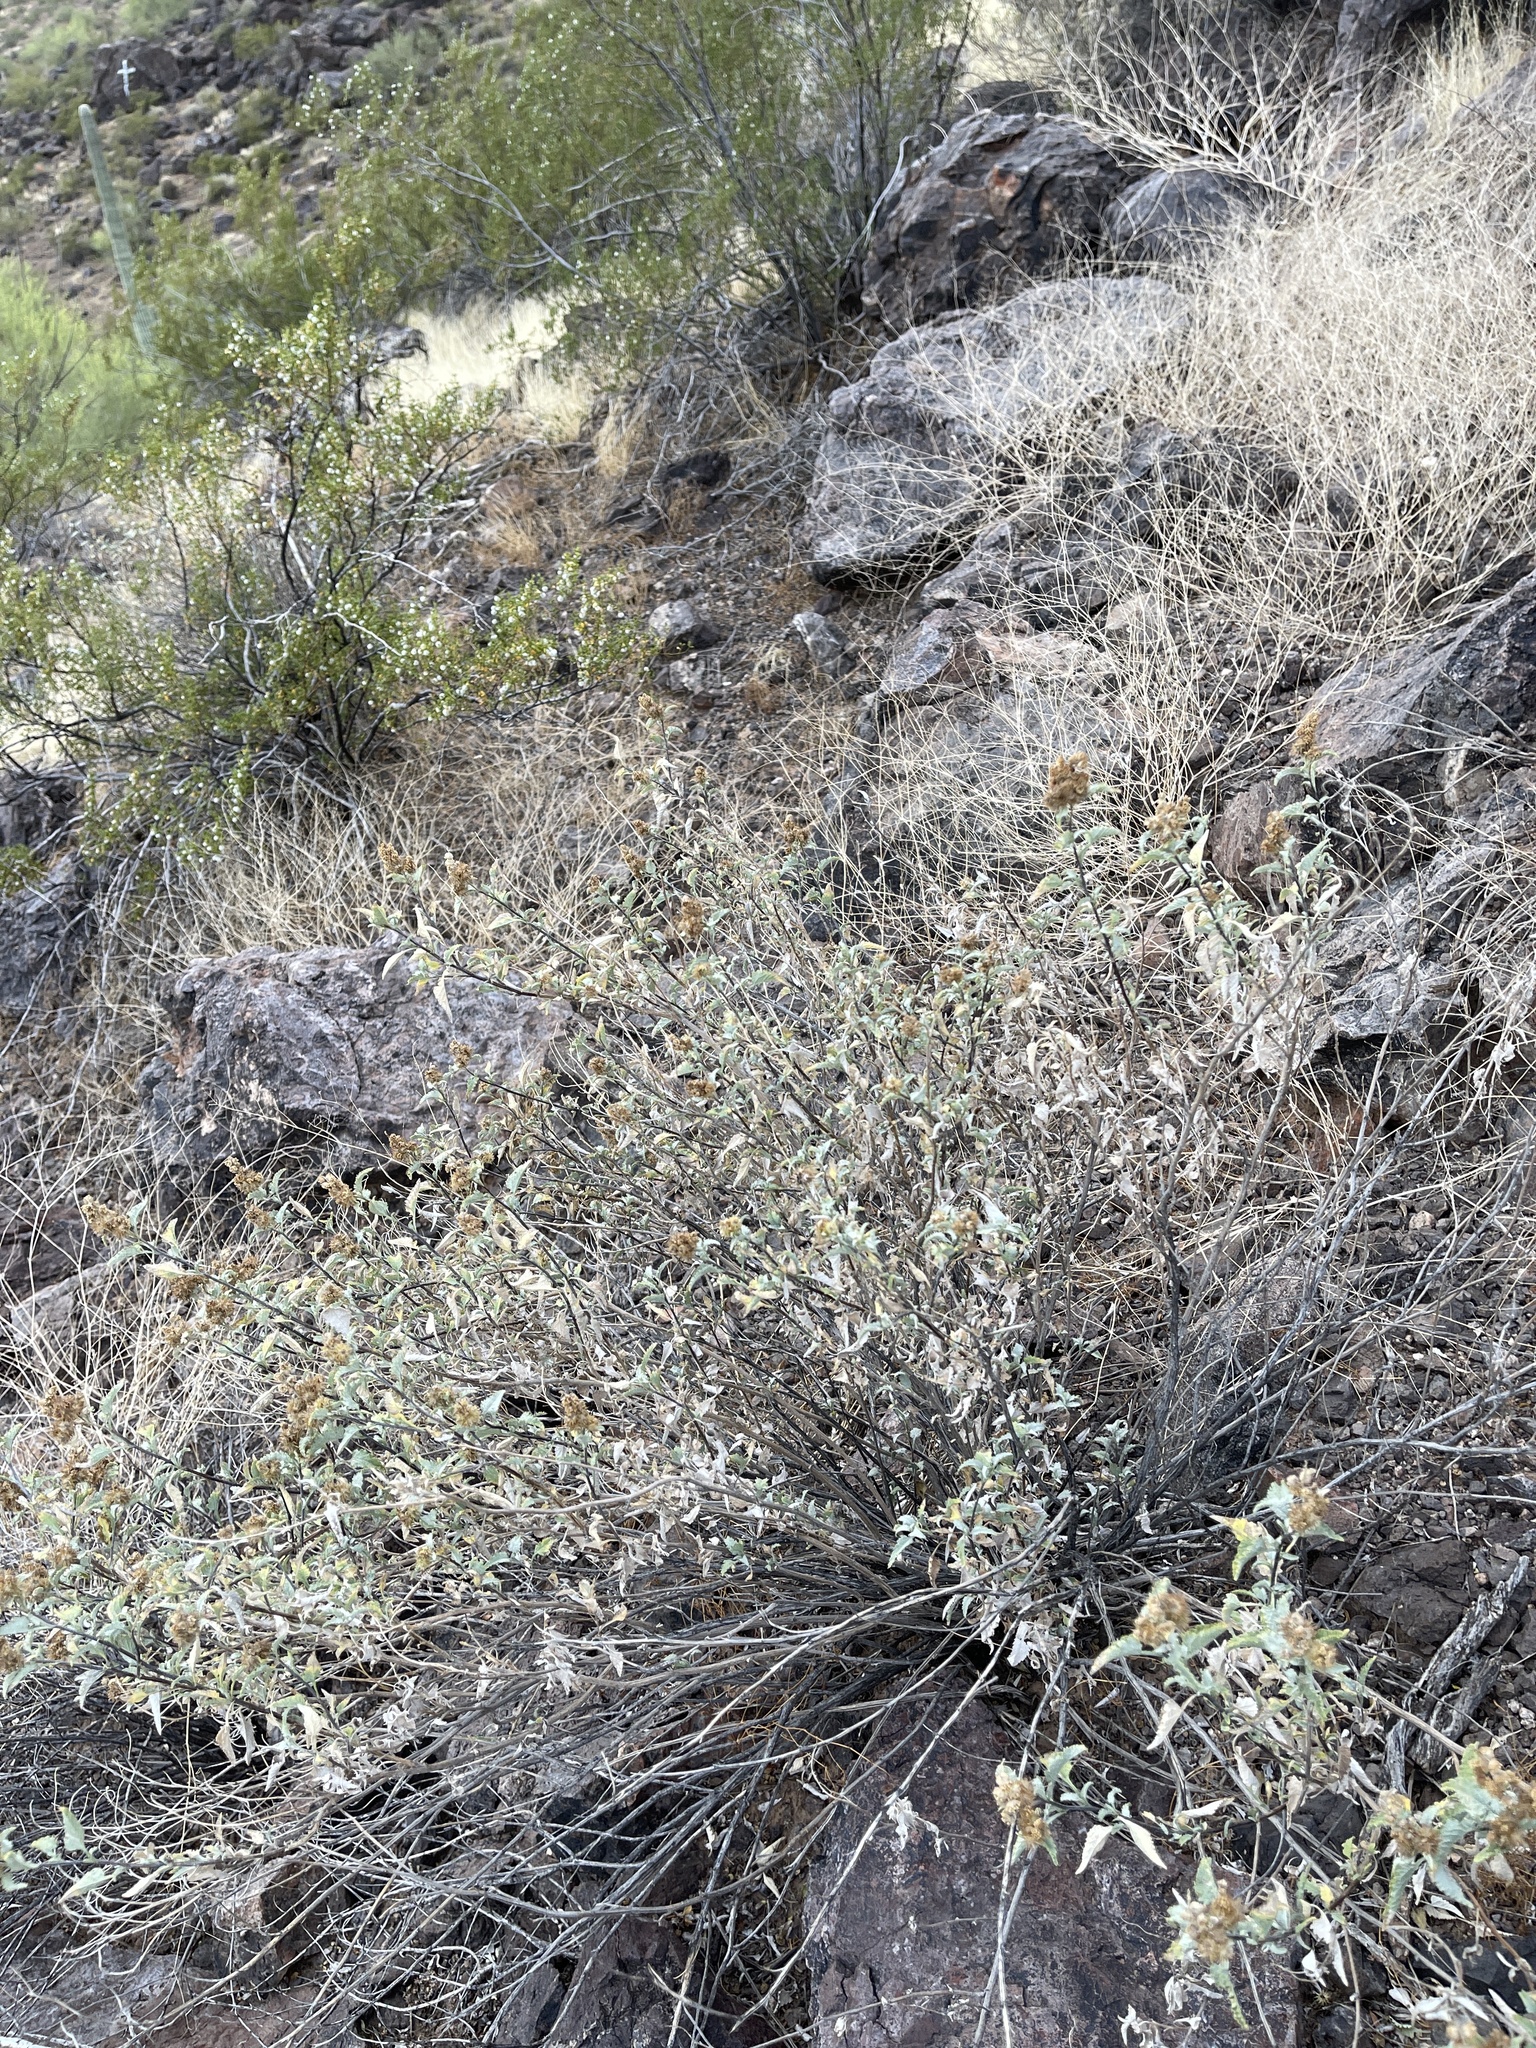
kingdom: Plantae
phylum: Tracheophyta
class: Magnoliopsida
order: Asterales
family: Asteraceae
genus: Ambrosia
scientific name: Ambrosia deltoidea
